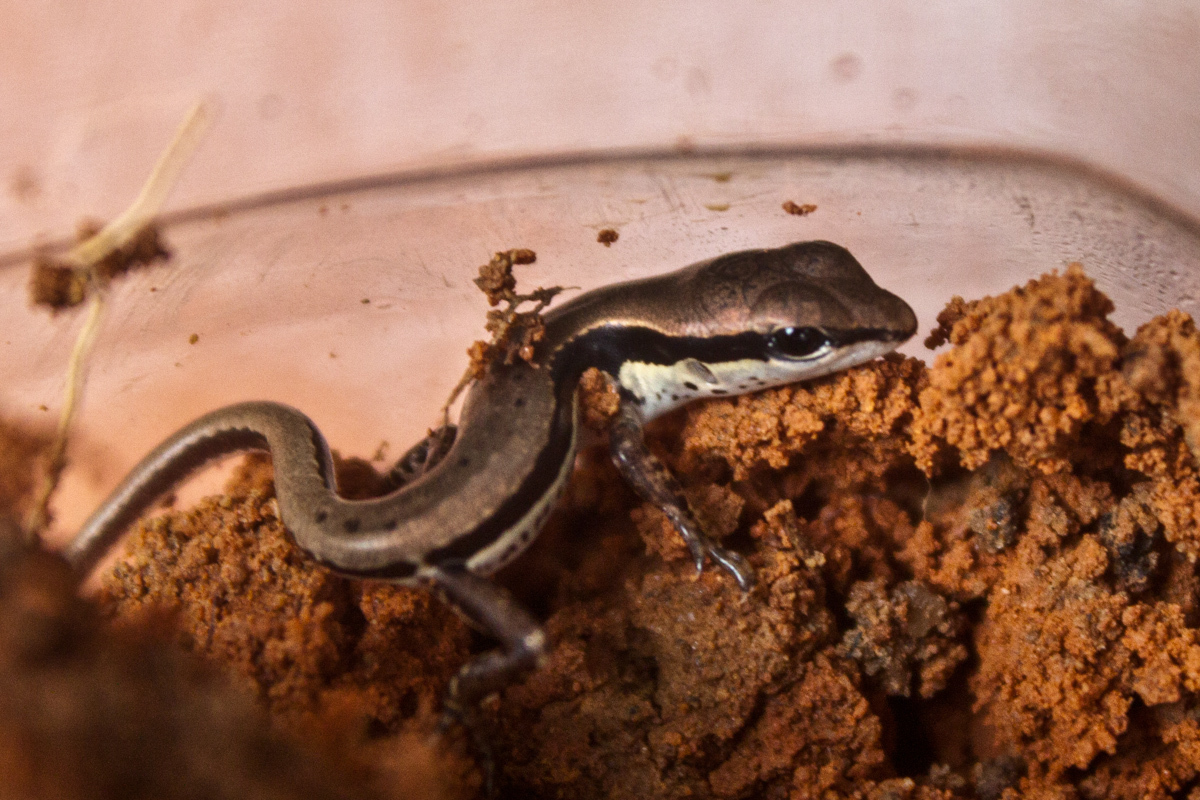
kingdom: Animalia
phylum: Chordata
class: Squamata
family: Scincidae
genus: Sphenomorphus
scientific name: Sphenomorphus maculatus
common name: Maculated forest skink
